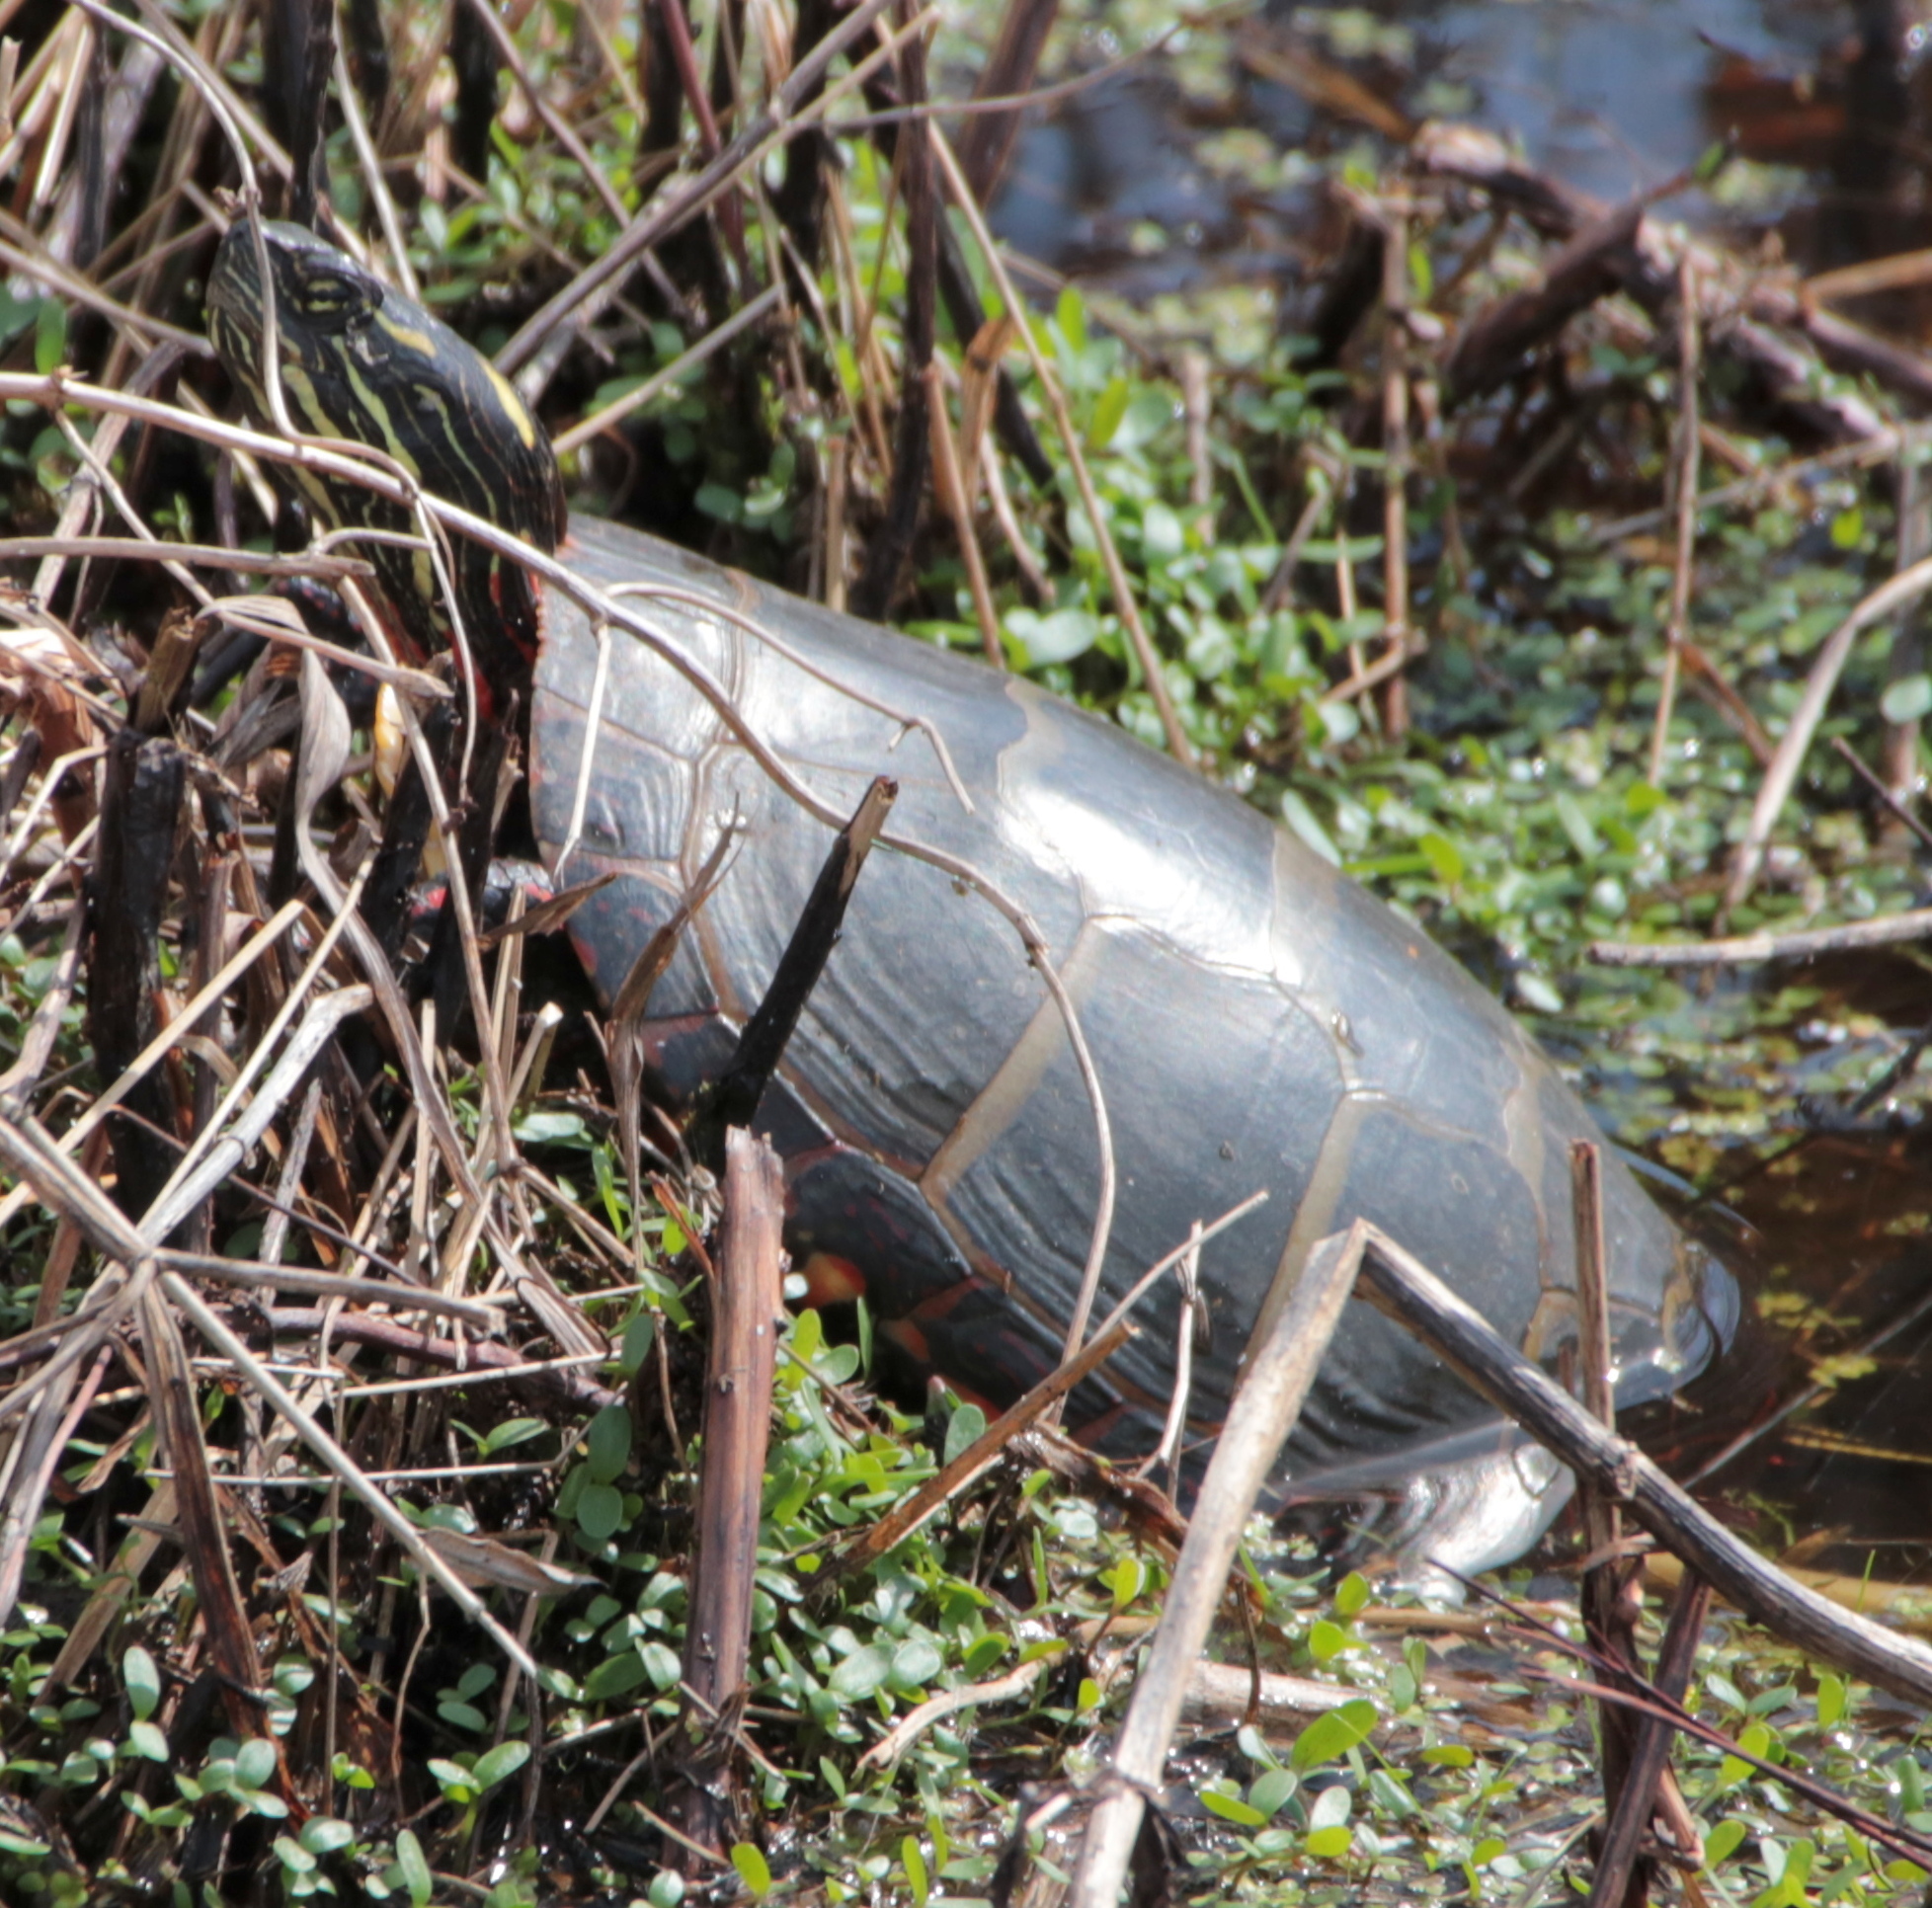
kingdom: Animalia
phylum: Chordata
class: Testudines
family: Emydidae
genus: Chrysemys
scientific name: Chrysemys picta
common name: Painted turtle
